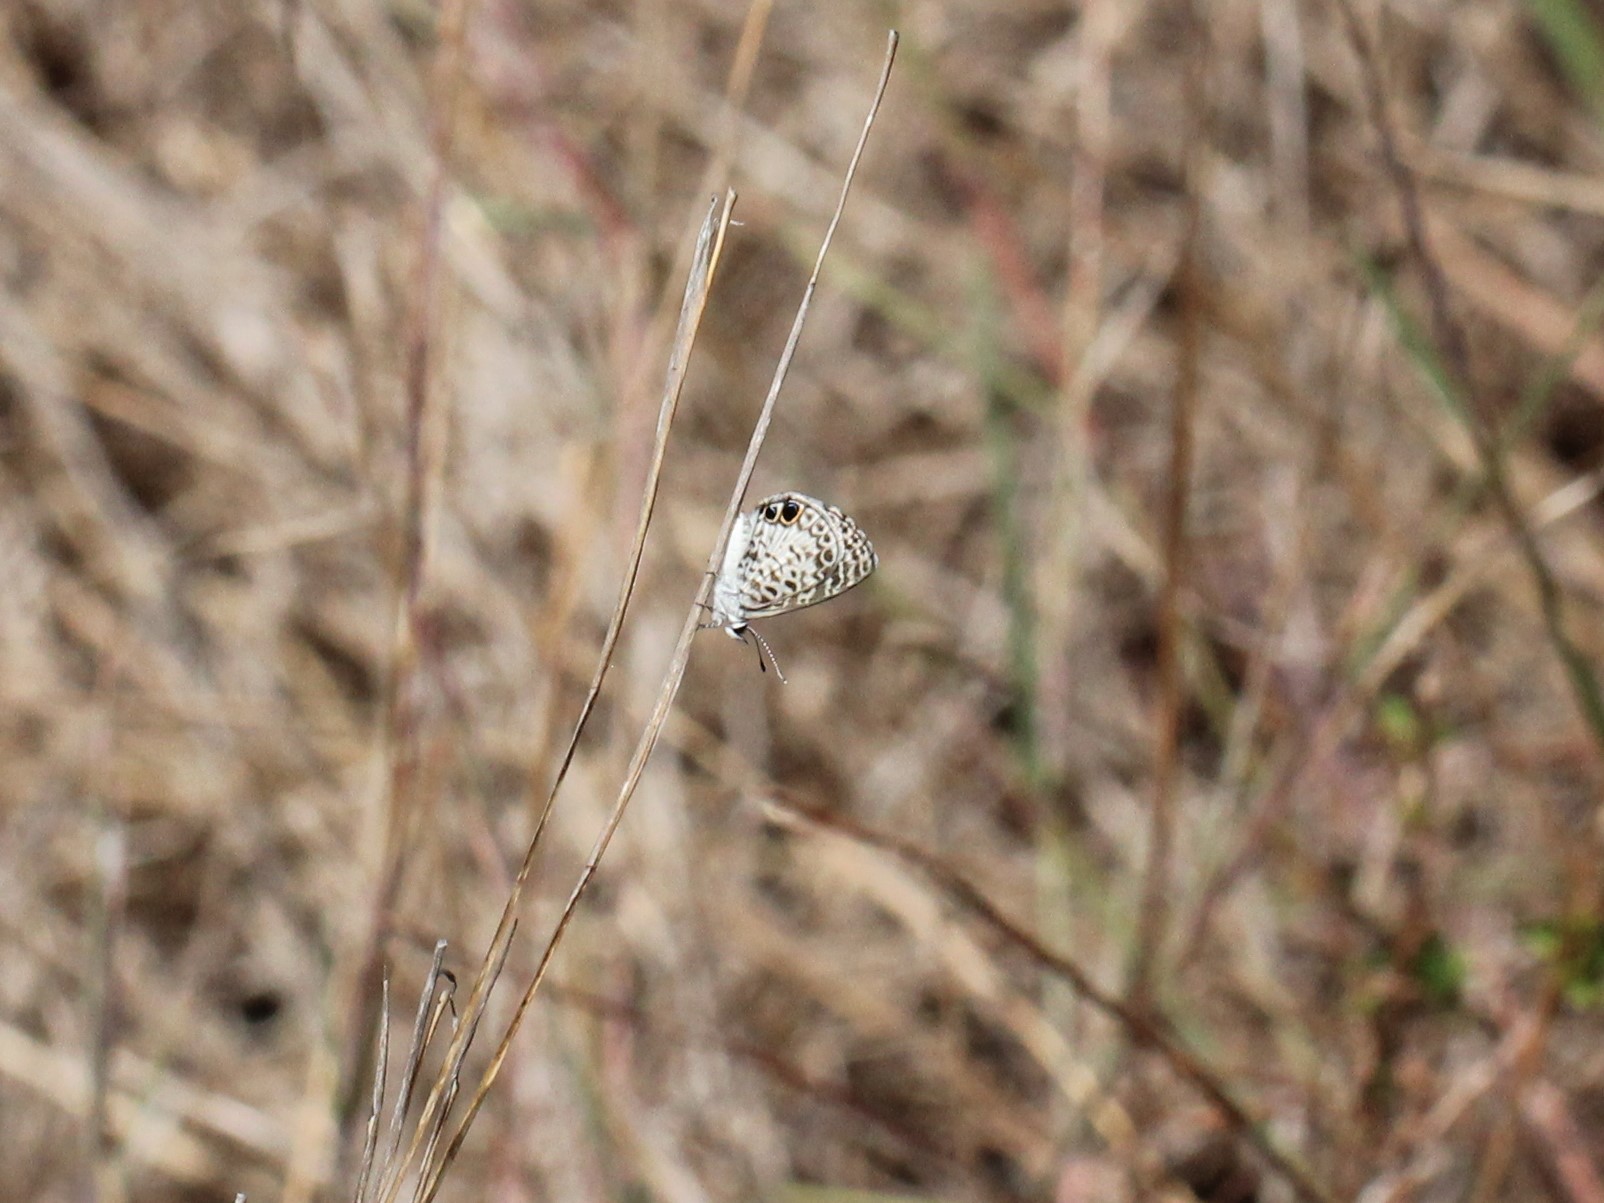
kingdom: Animalia
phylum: Arthropoda
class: Insecta
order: Lepidoptera
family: Lycaenidae
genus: Leptotes
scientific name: Leptotes cassius
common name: Cassius blue
